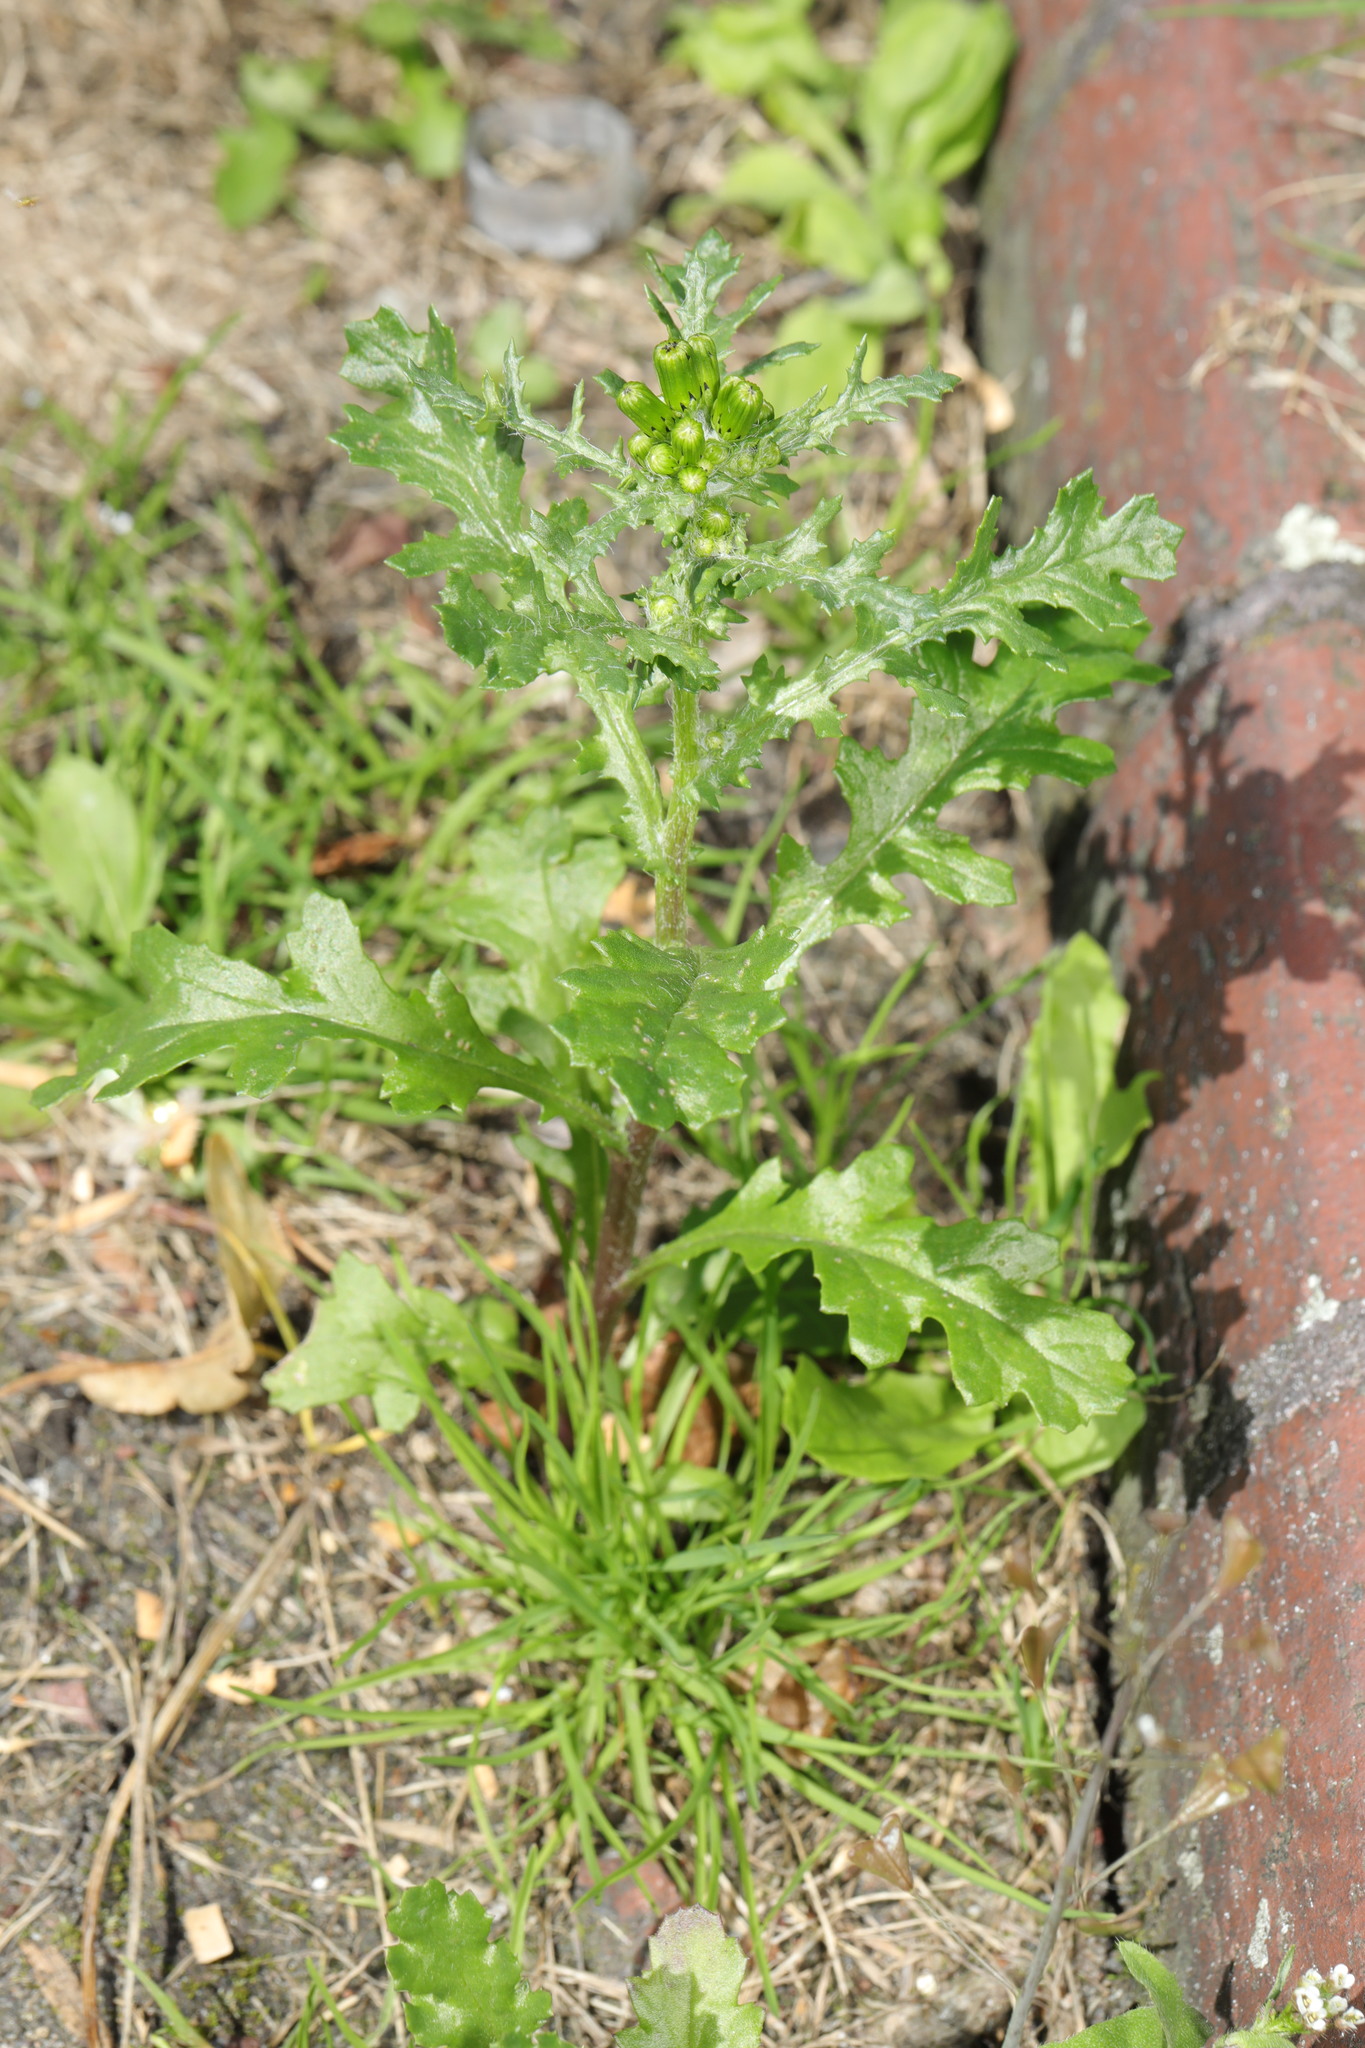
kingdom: Plantae
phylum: Tracheophyta
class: Magnoliopsida
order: Asterales
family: Asteraceae
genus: Senecio
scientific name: Senecio vulgaris
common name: Old-man-in-the-spring
